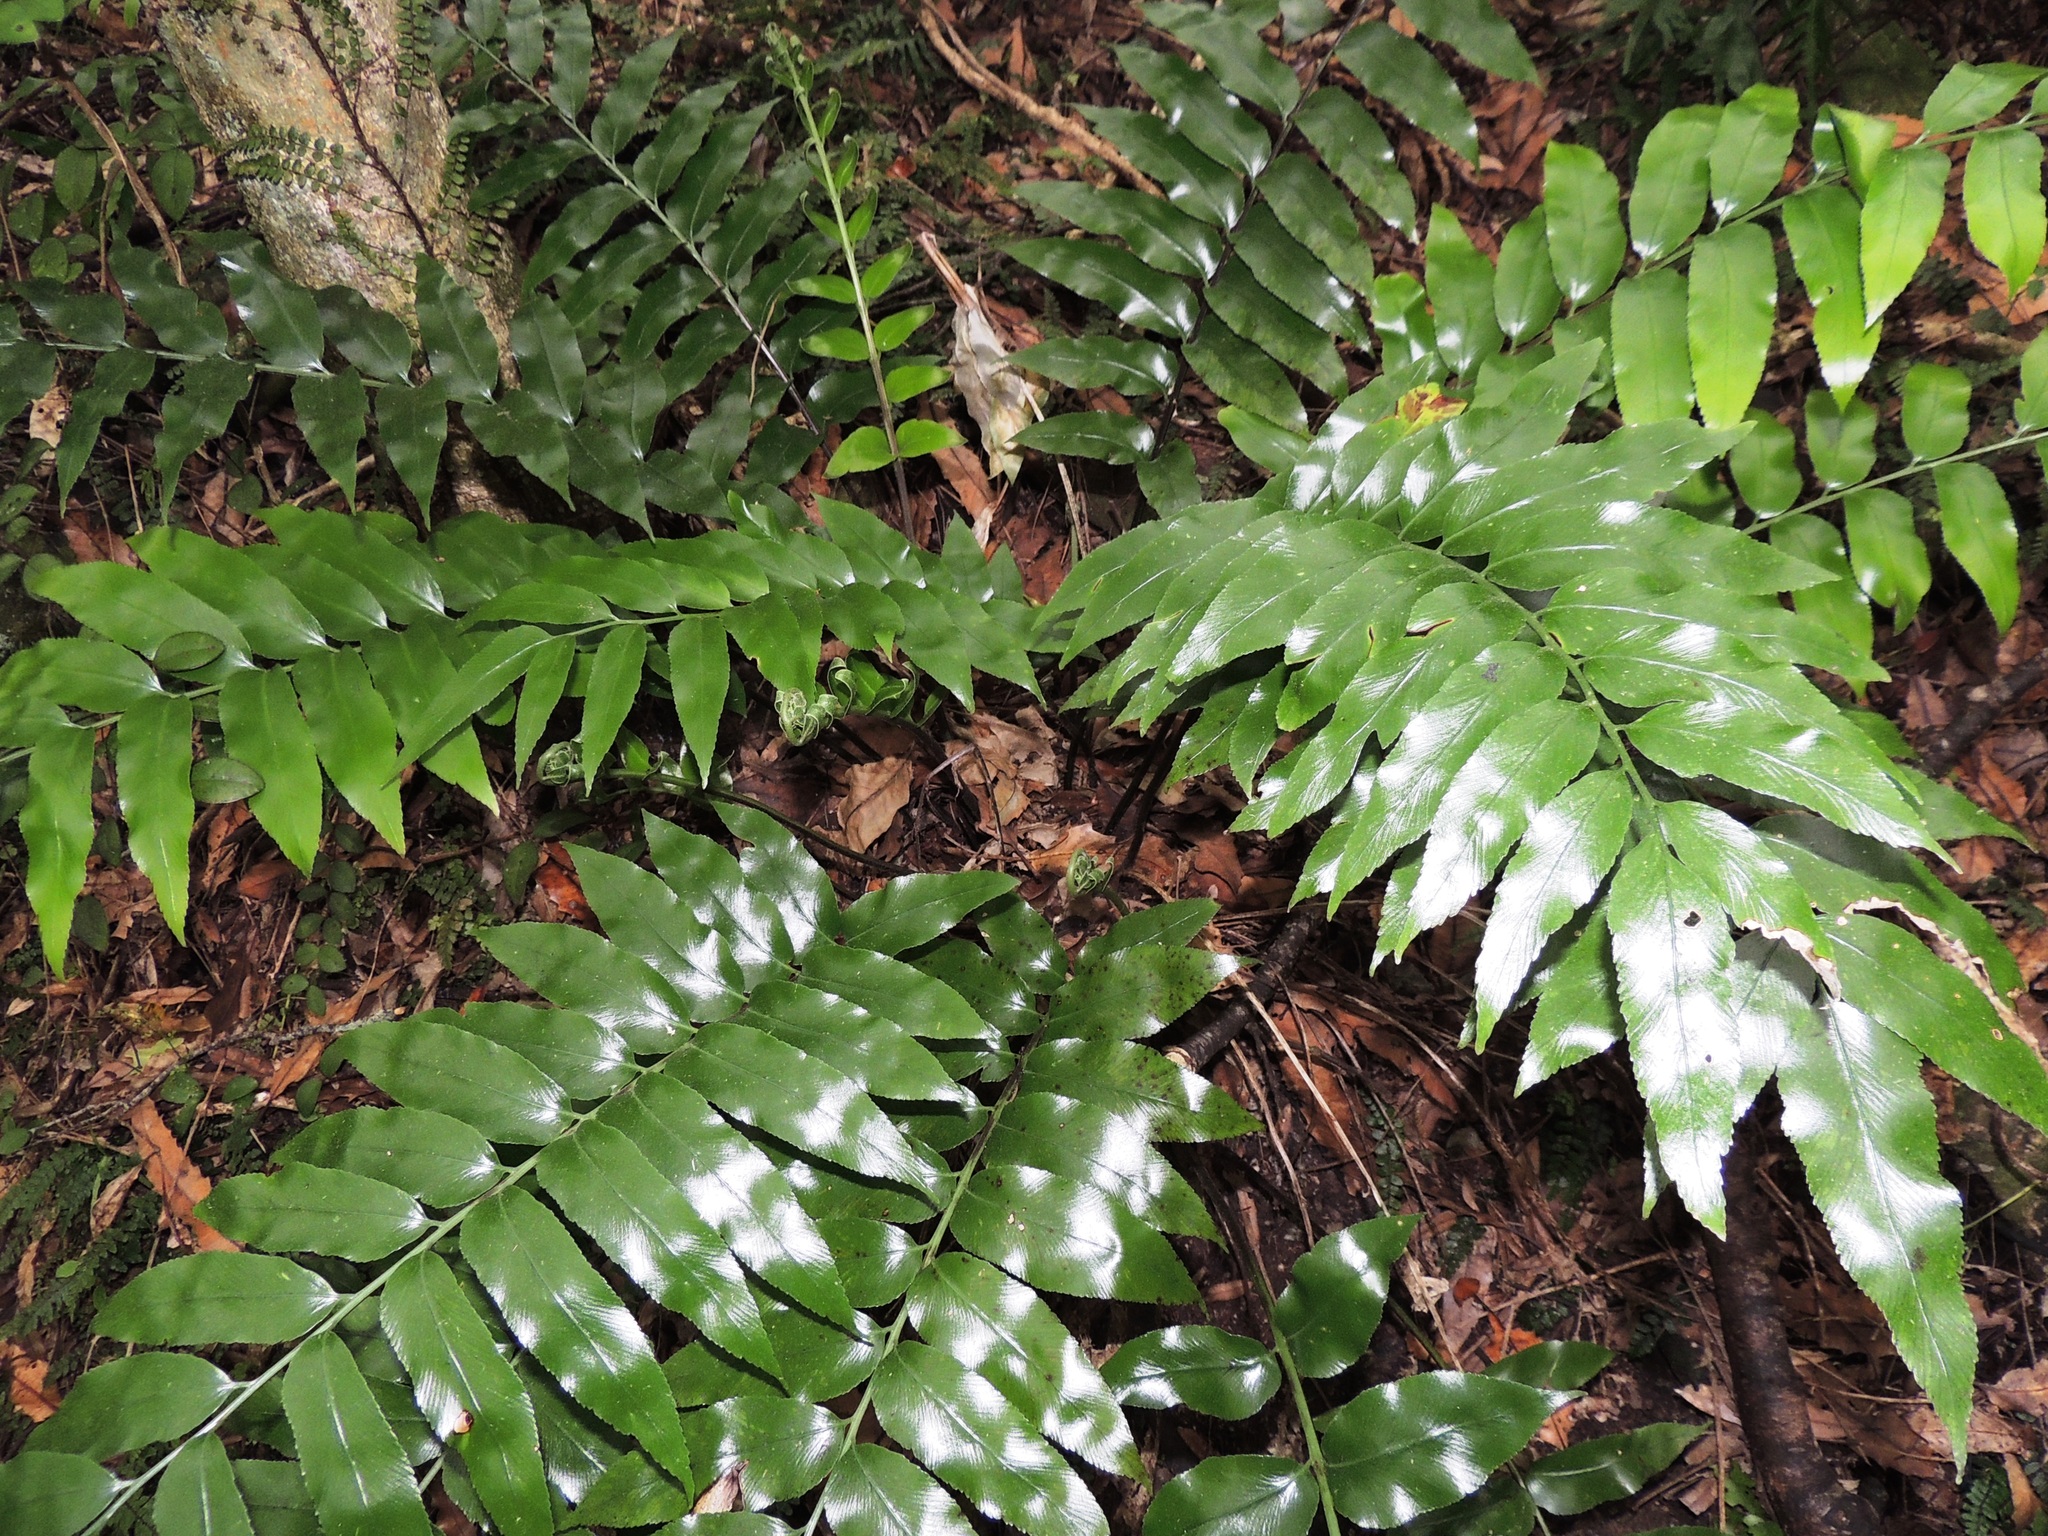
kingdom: Plantae
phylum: Tracheophyta
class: Polypodiopsida
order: Polypodiales
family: Aspleniaceae
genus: Asplenium
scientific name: Asplenium oblongifolium
